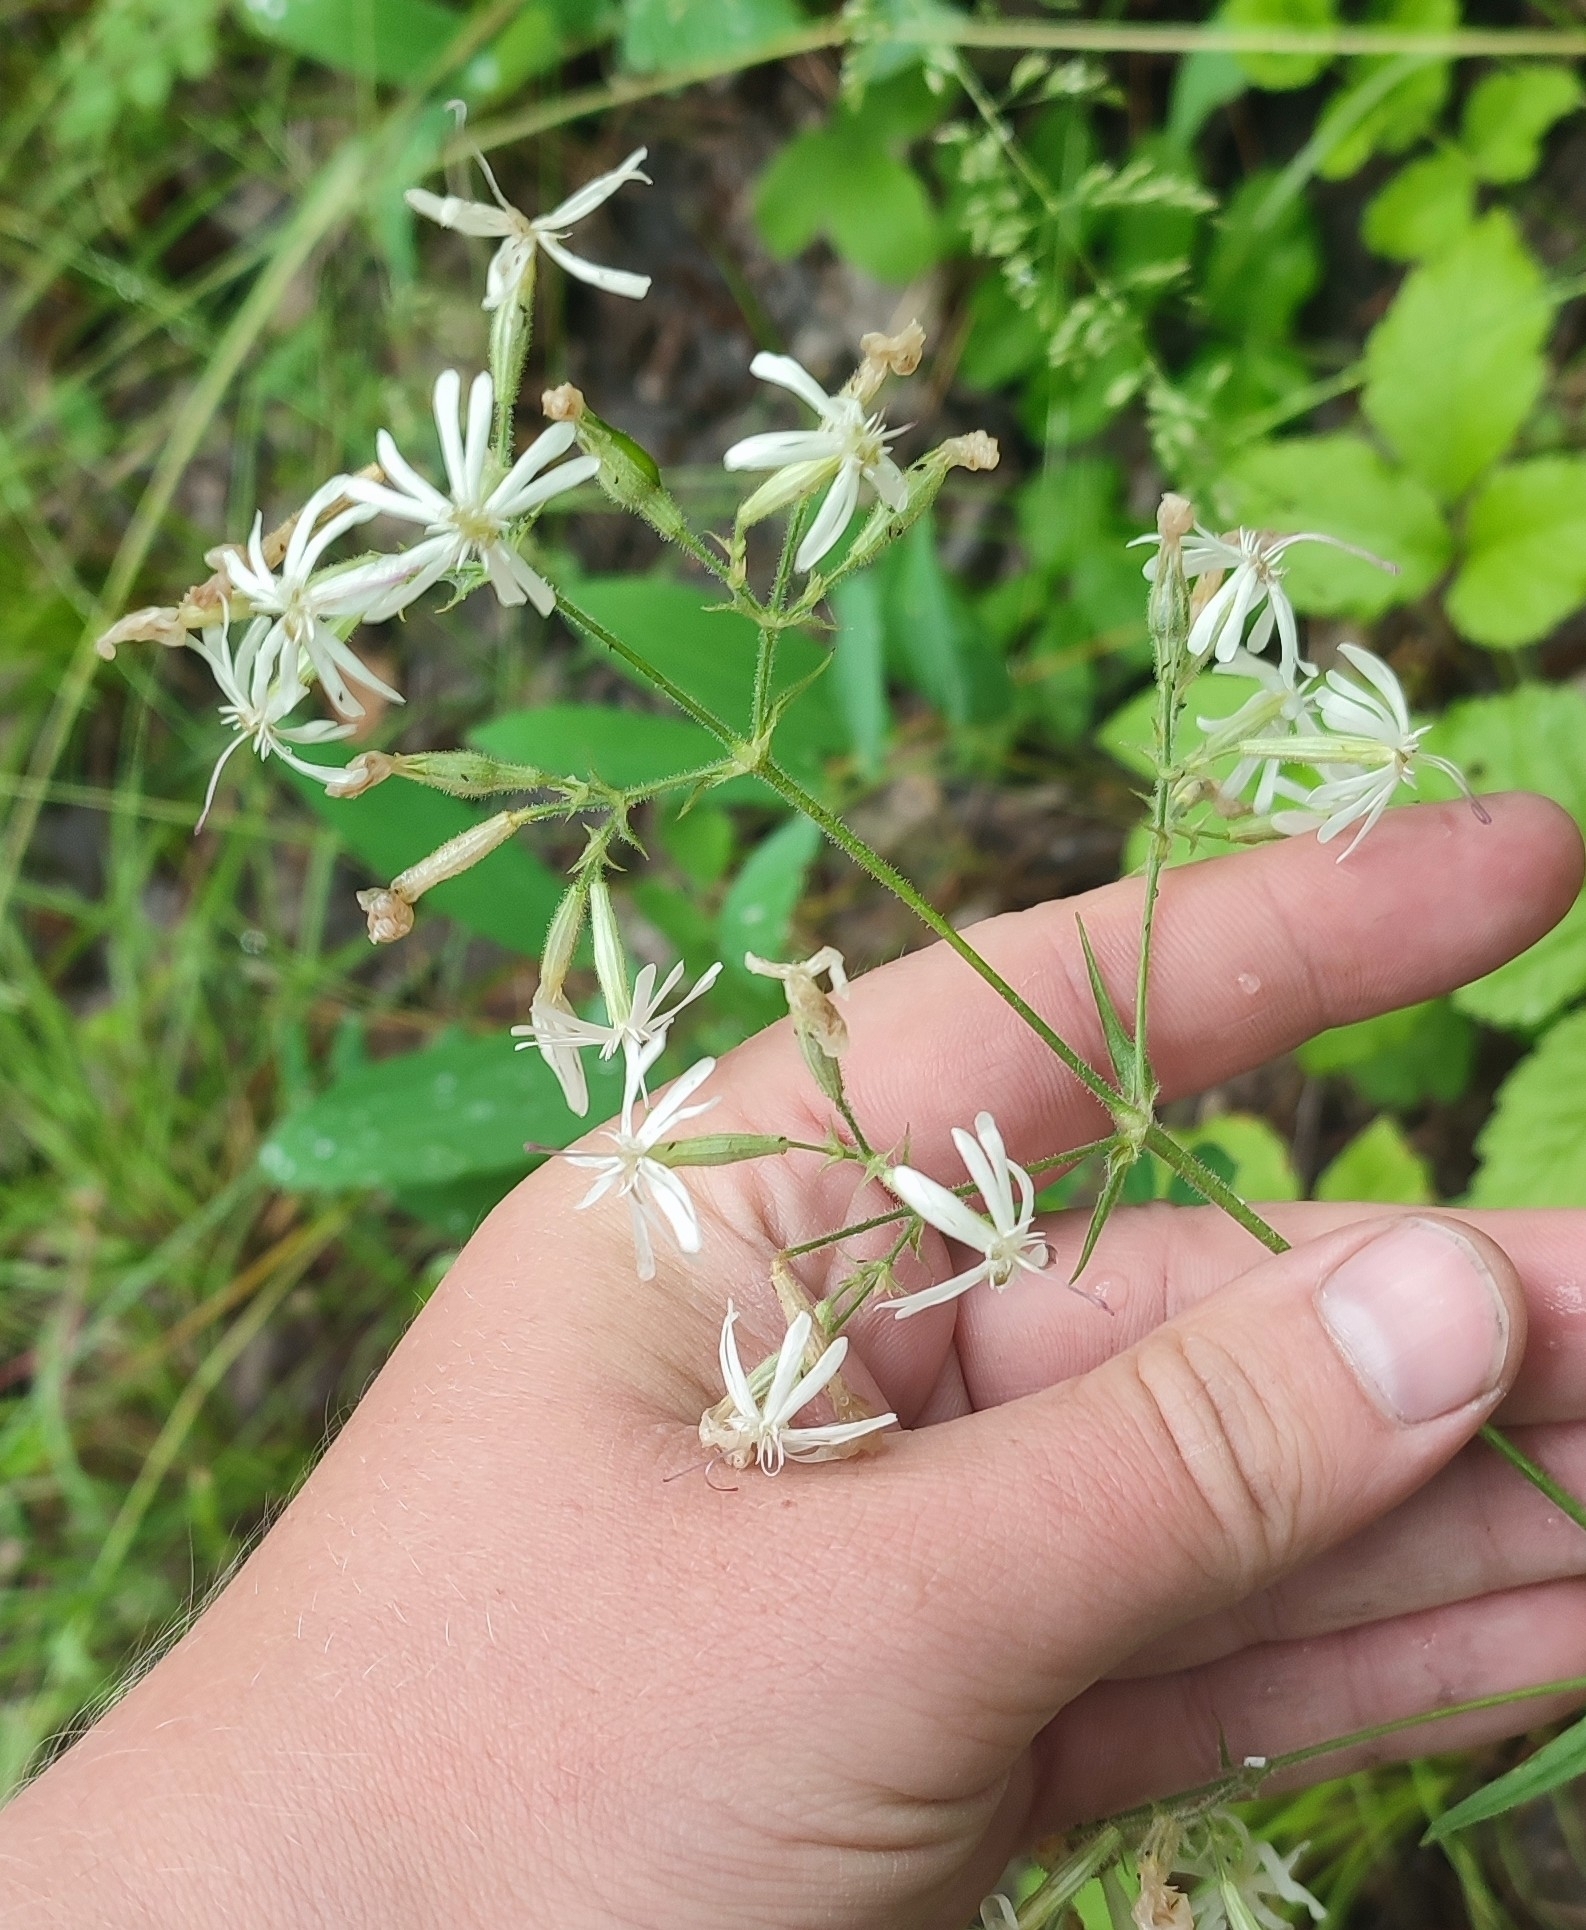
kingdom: Plantae
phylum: Tracheophyta
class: Magnoliopsida
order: Caryophyllales
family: Caryophyllaceae
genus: Silene
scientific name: Silene nutans
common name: Nottingham catchfly
